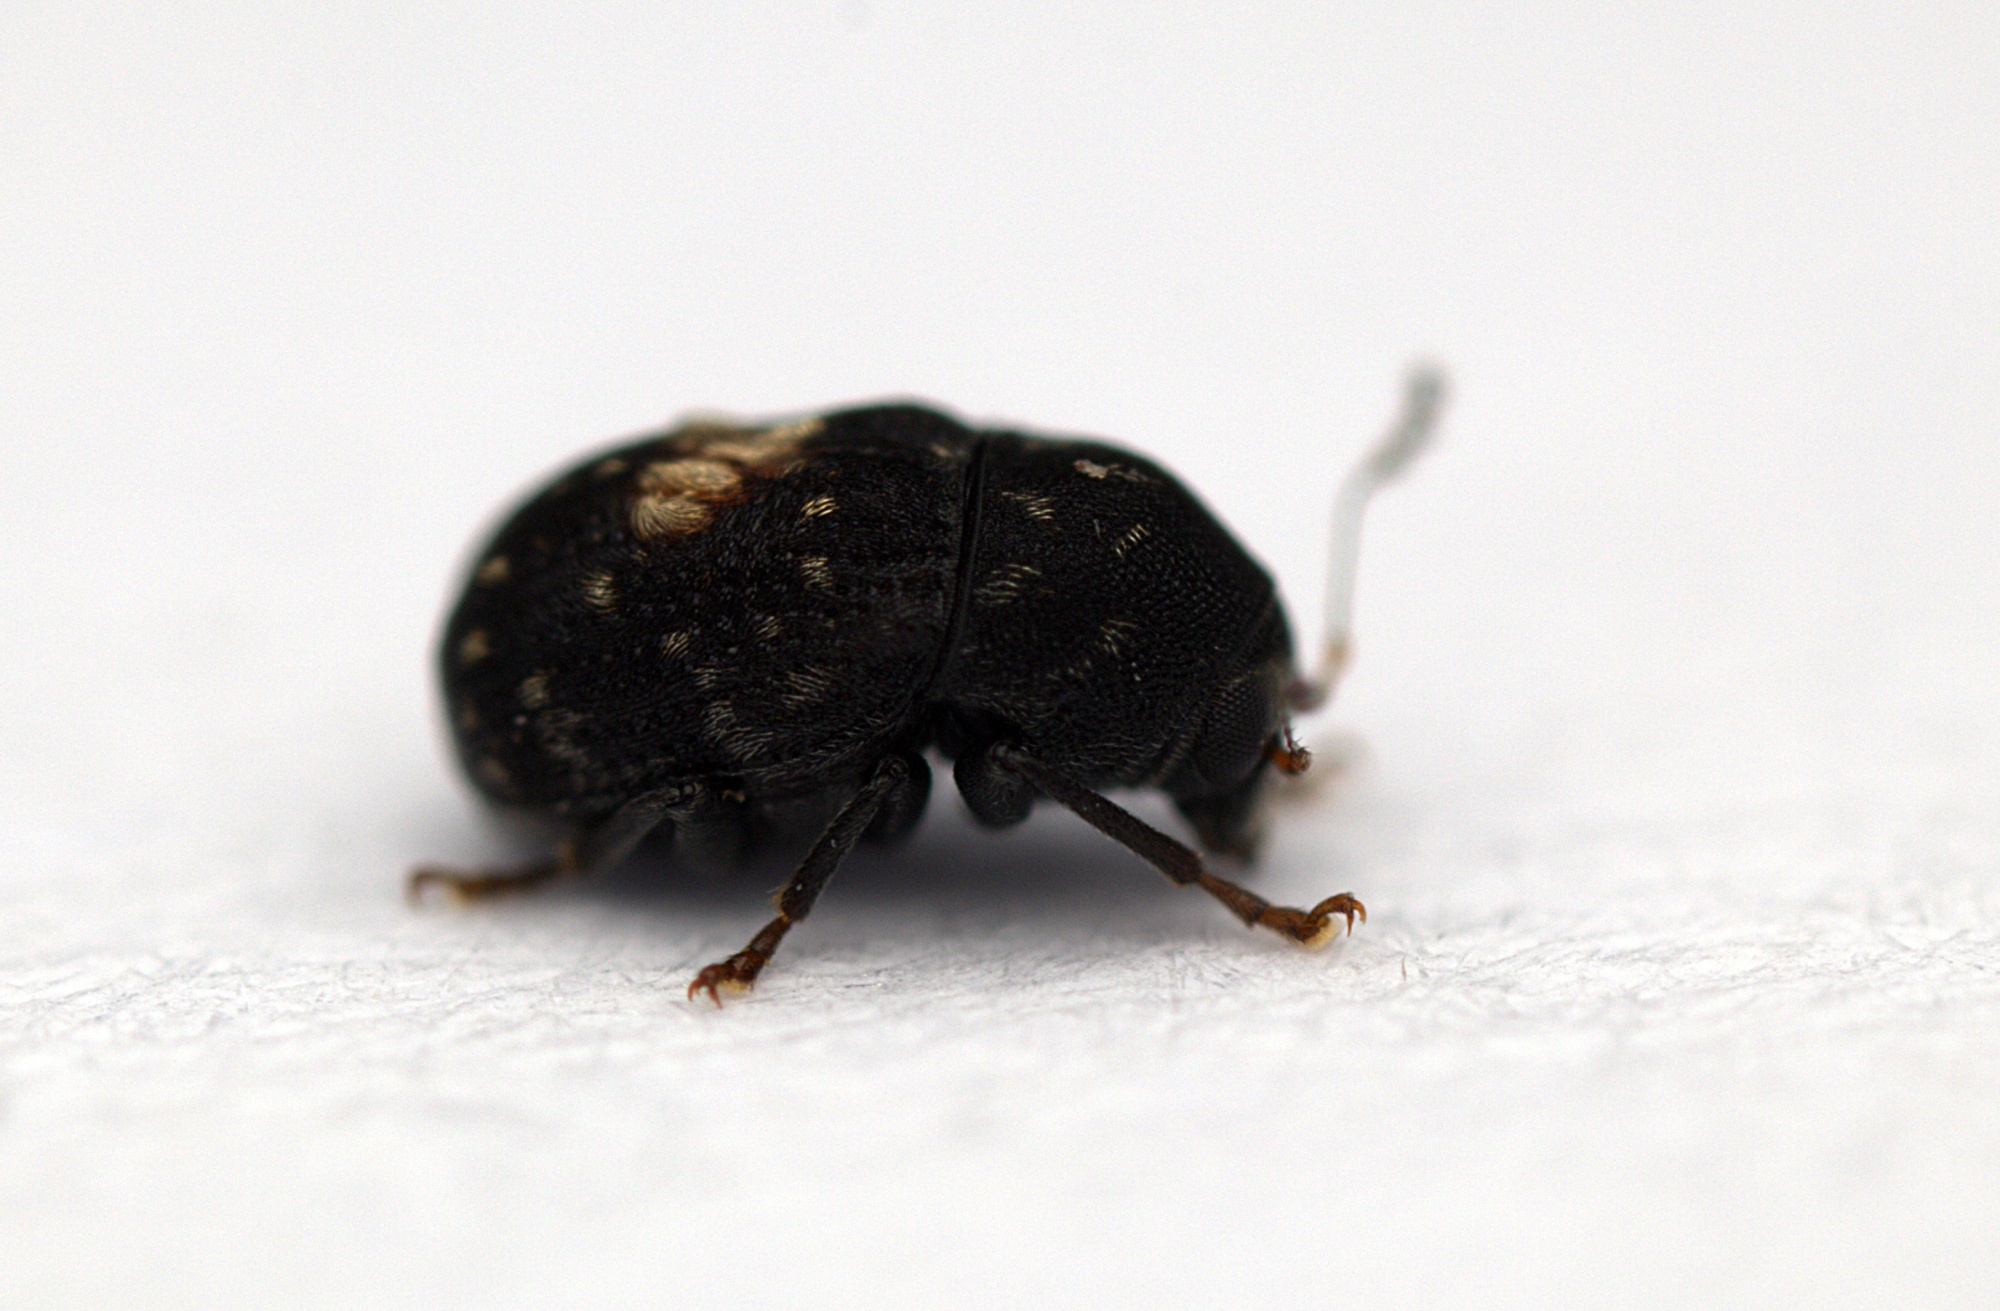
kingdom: Animalia
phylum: Arthropoda
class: Insecta
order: Coleoptera
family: Anthribidae
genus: Notochoragus
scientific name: Notochoragus
